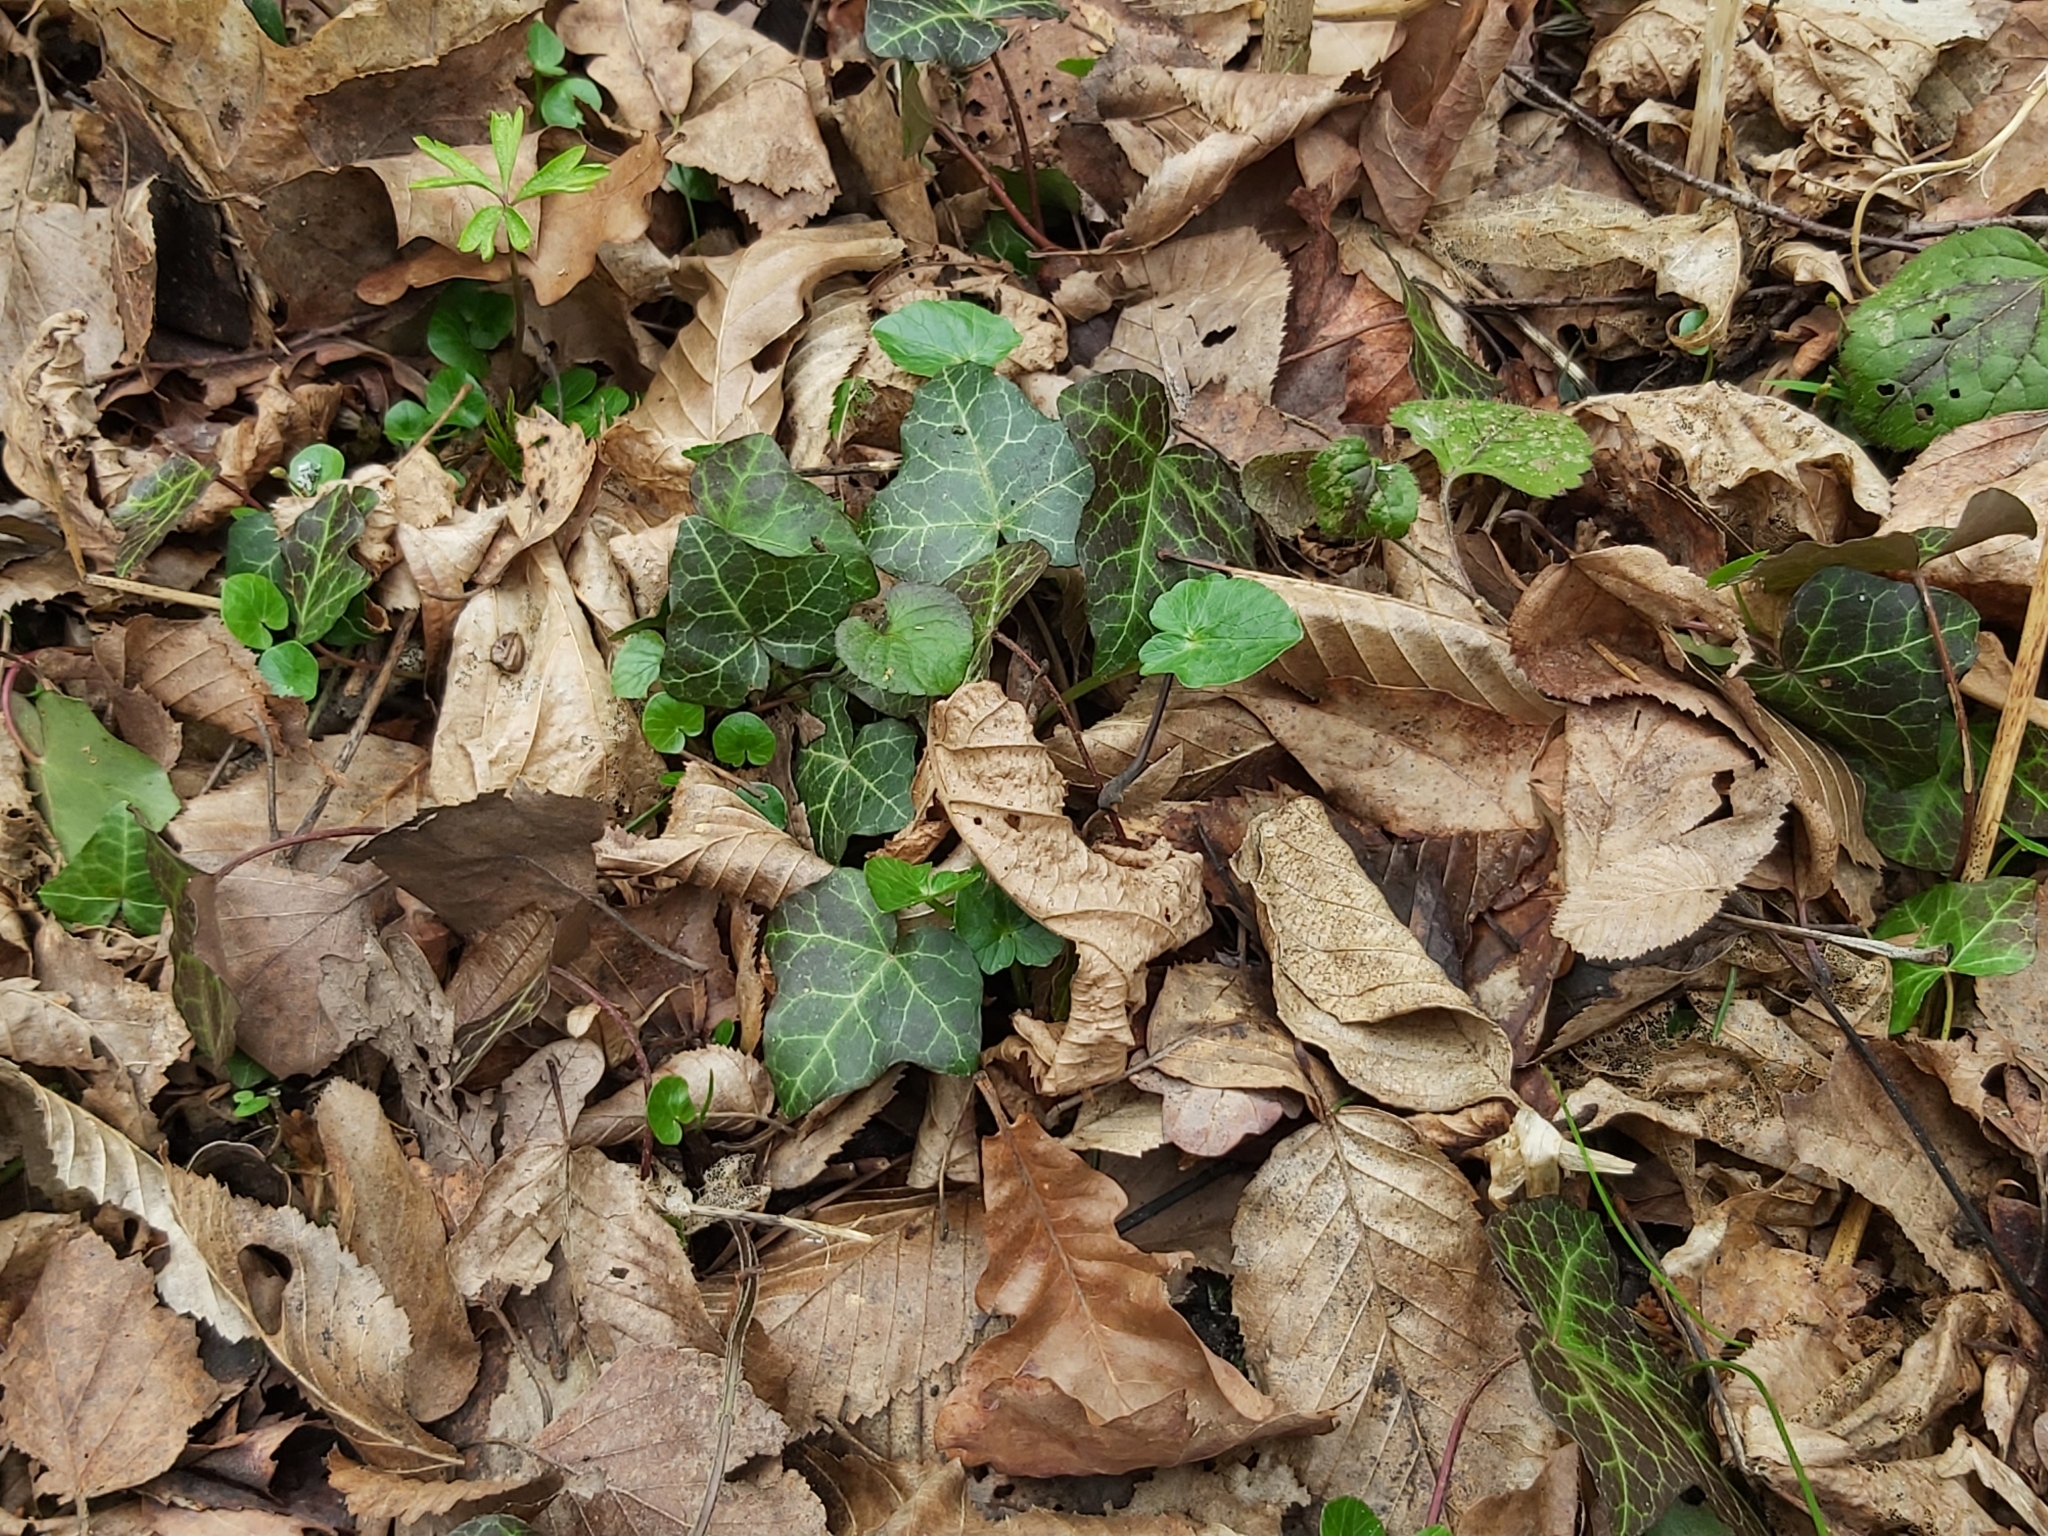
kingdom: Plantae
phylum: Tracheophyta
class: Magnoliopsida
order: Apiales
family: Araliaceae
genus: Hedera
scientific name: Hedera helix
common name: Ivy
